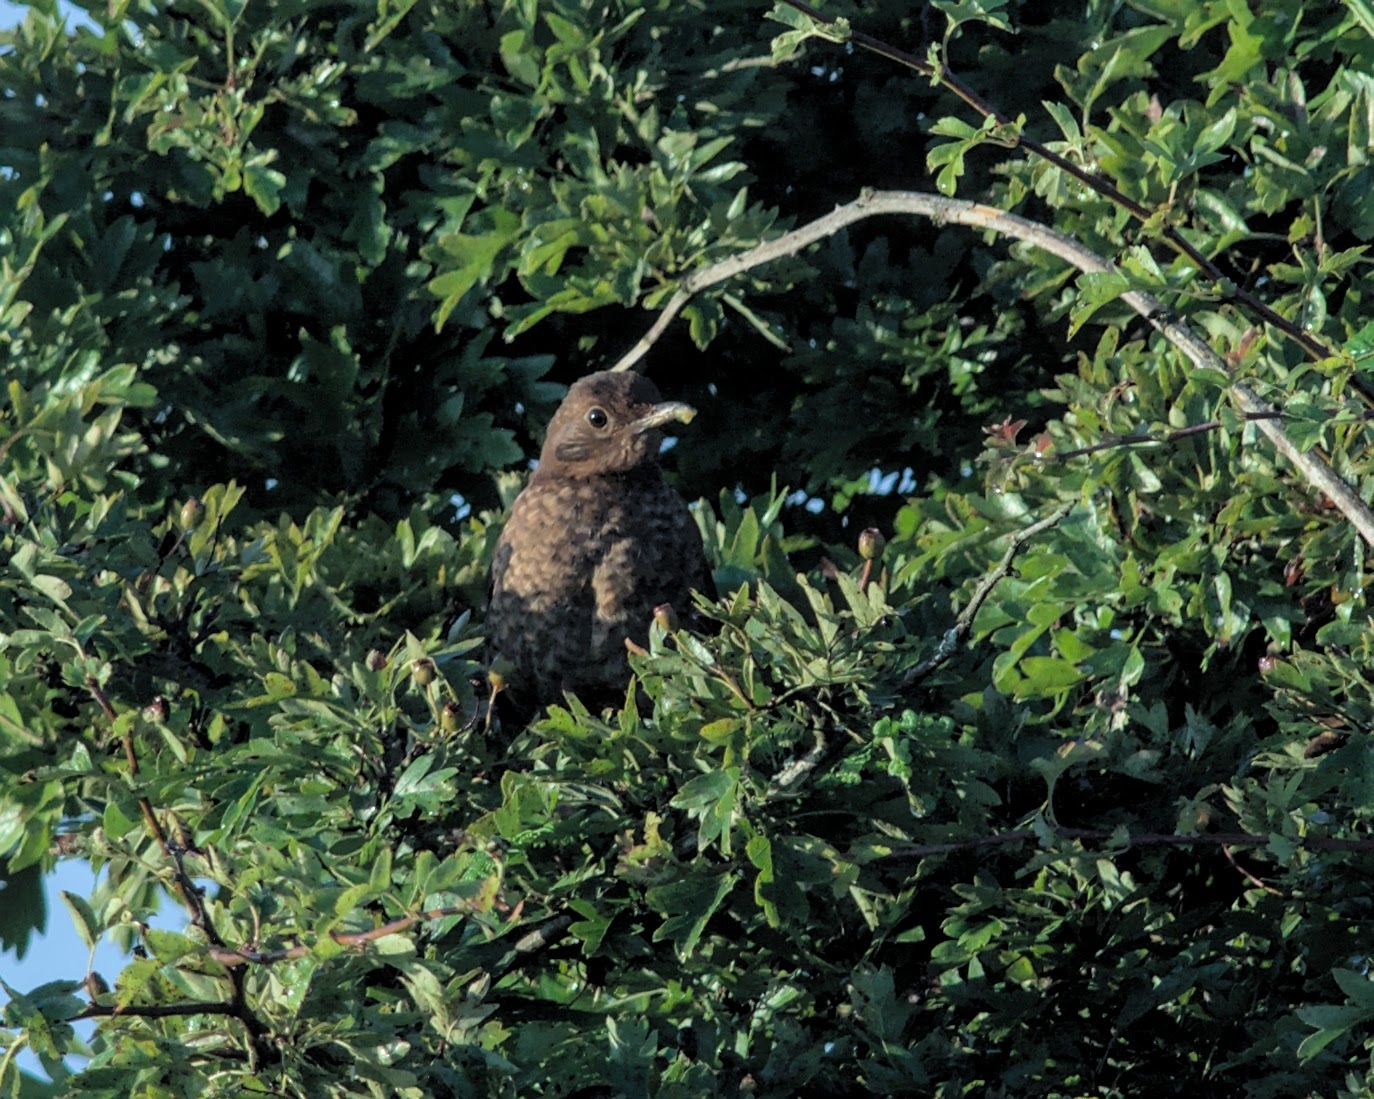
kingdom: Animalia
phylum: Chordata
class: Aves
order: Passeriformes
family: Turdidae
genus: Turdus
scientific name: Turdus merula
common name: Common blackbird
